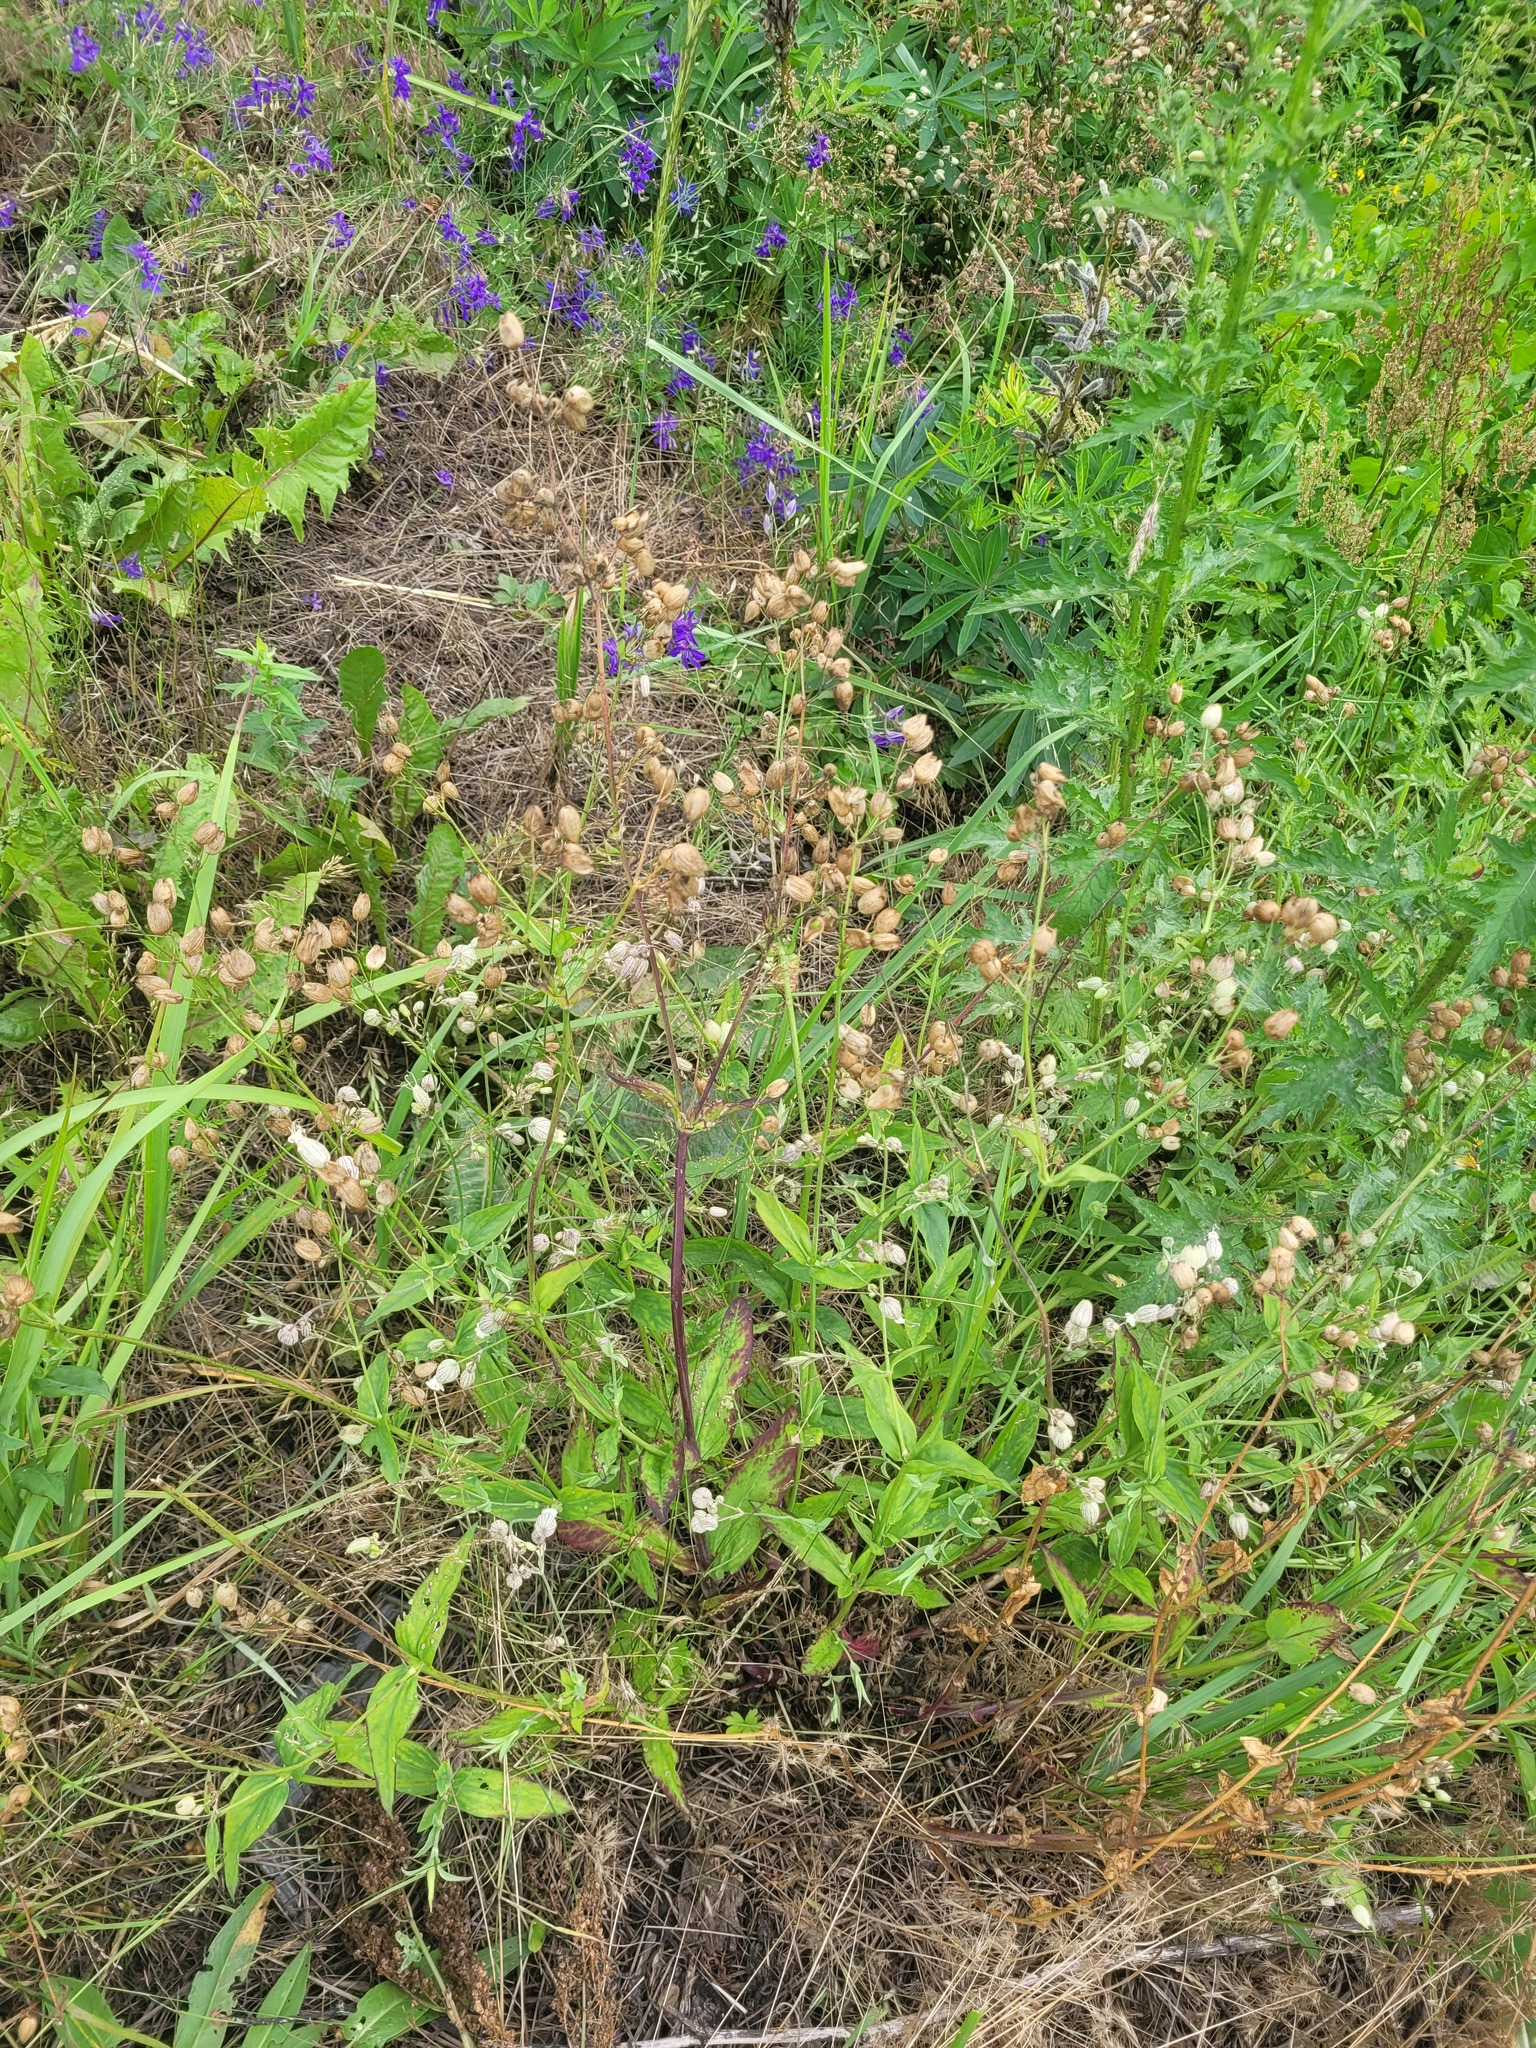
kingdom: Plantae
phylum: Tracheophyta
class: Magnoliopsida
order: Caryophyllales
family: Caryophyllaceae
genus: Silene
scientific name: Silene vulgaris
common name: Bladder campion
